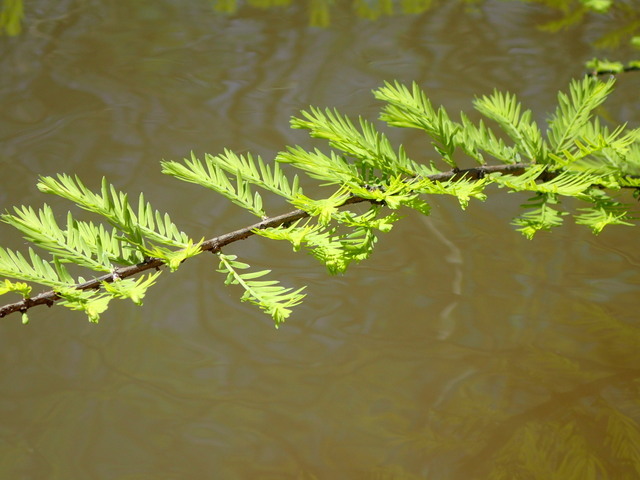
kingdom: Plantae
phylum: Tracheophyta
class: Pinopsida
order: Pinales
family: Cupressaceae
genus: Taxodium
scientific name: Taxodium distichum
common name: Bald cypress
